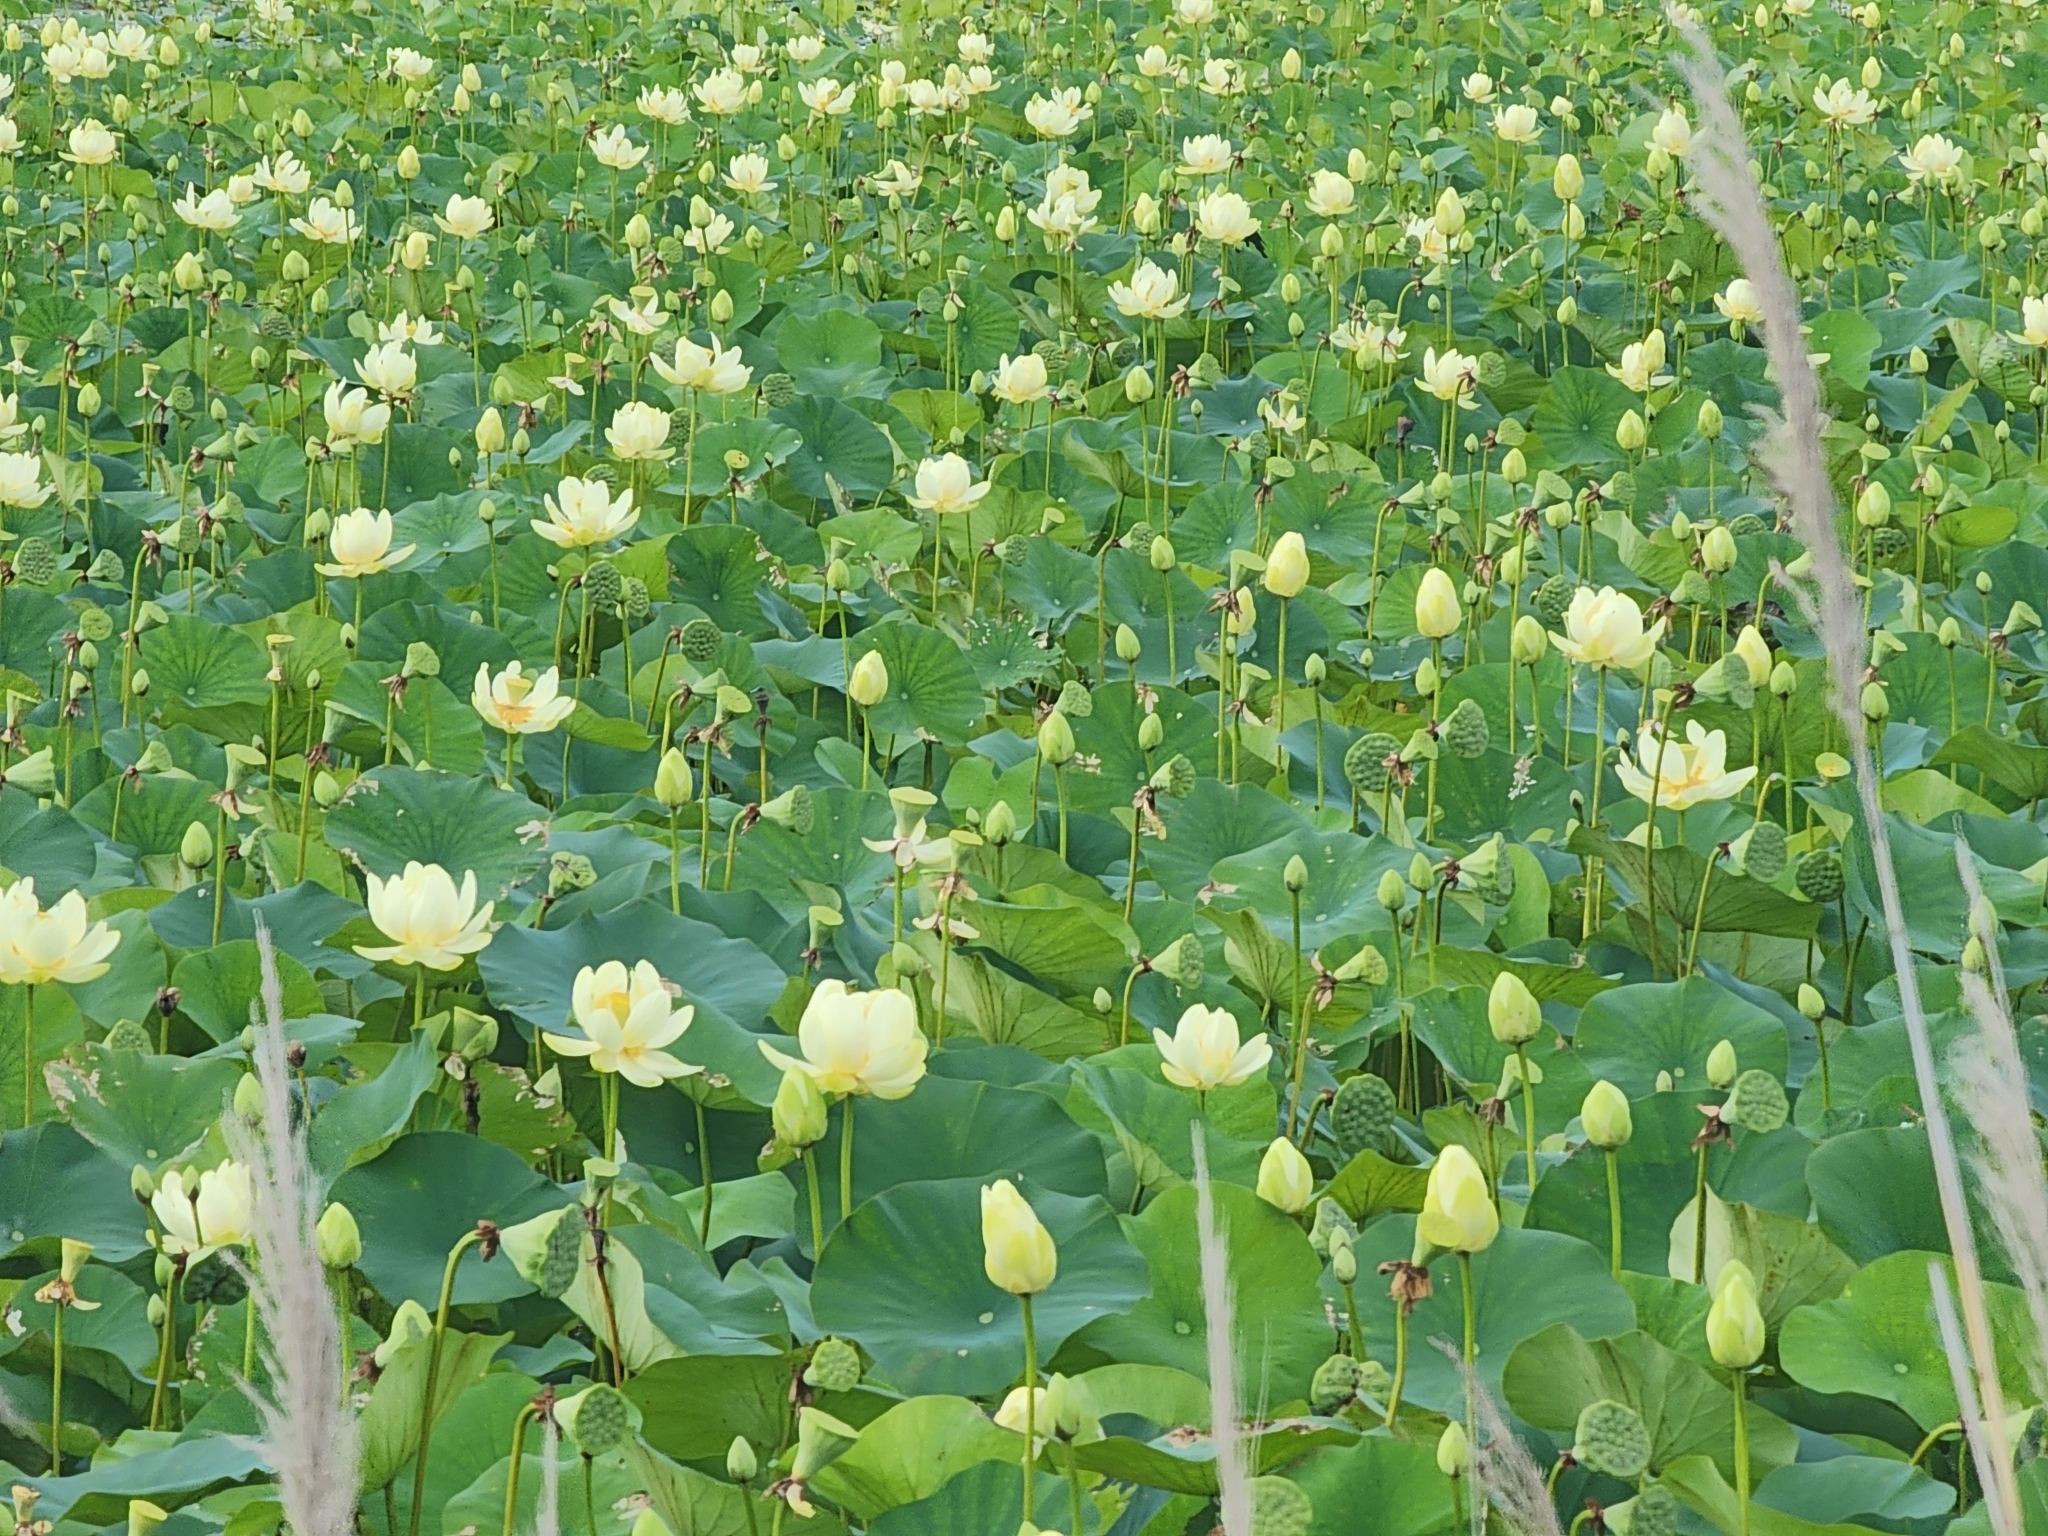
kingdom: Plantae
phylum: Tracheophyta
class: Magnoliopsida
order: Proteales
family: Nelumbonaceae
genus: Nelumbo
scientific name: Nelumbo lutea
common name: American lotus
